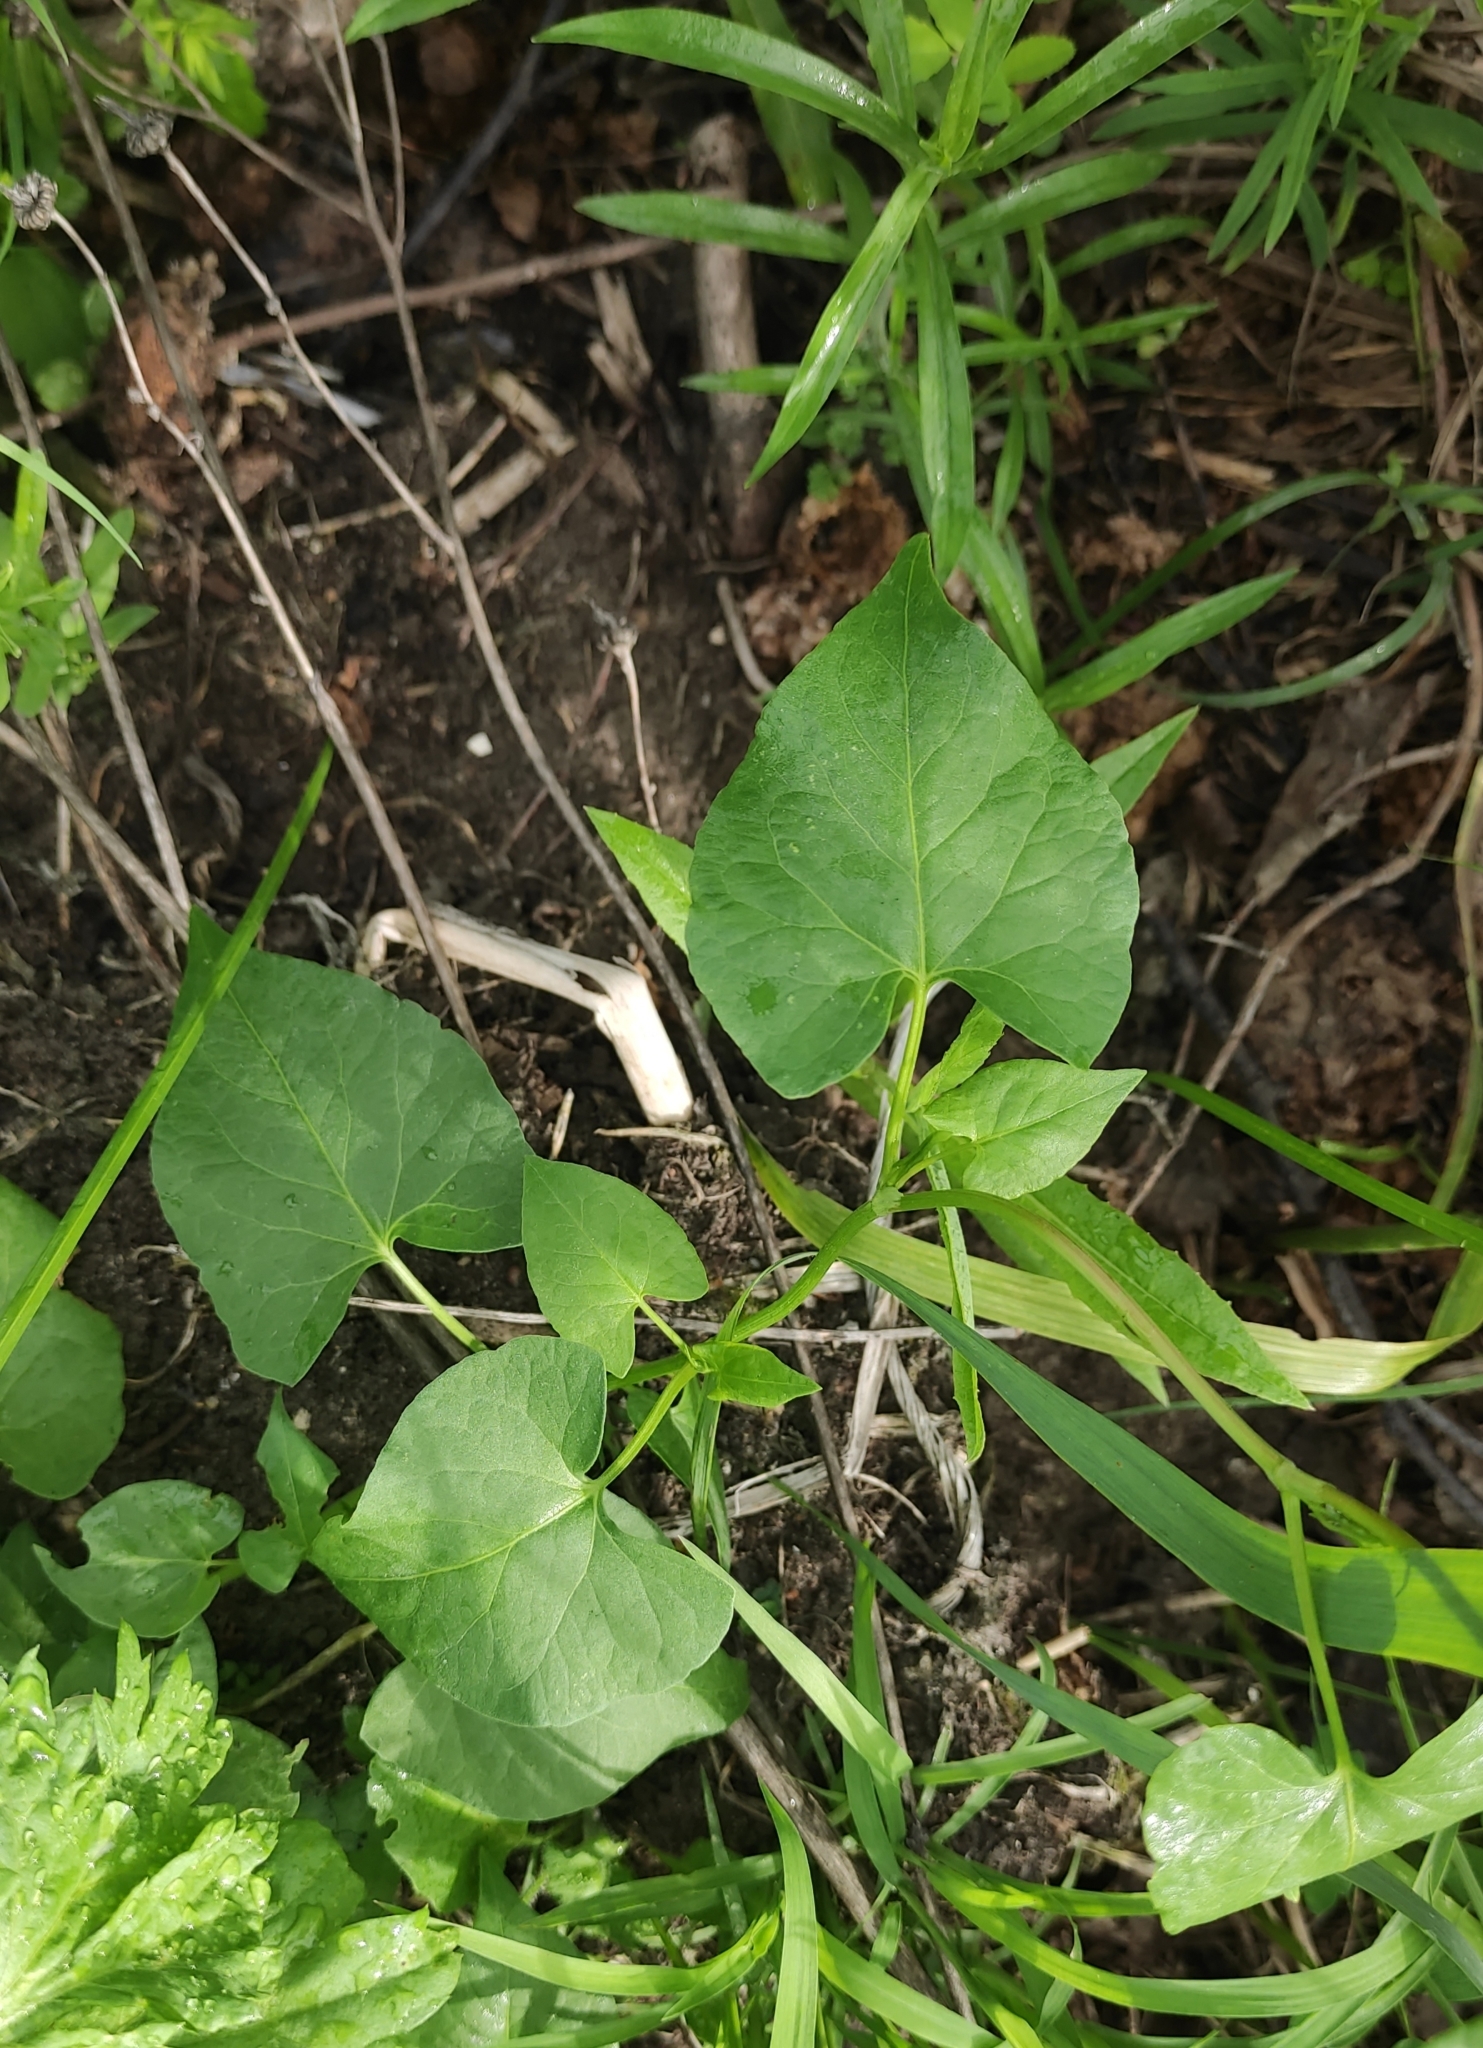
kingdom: Plantae
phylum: Tracheophyta
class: Magnoliopsida
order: Caryophyllales
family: Polygonaceae
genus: Fallopia
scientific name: Fallopia convolvulus
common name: Black bindweed
